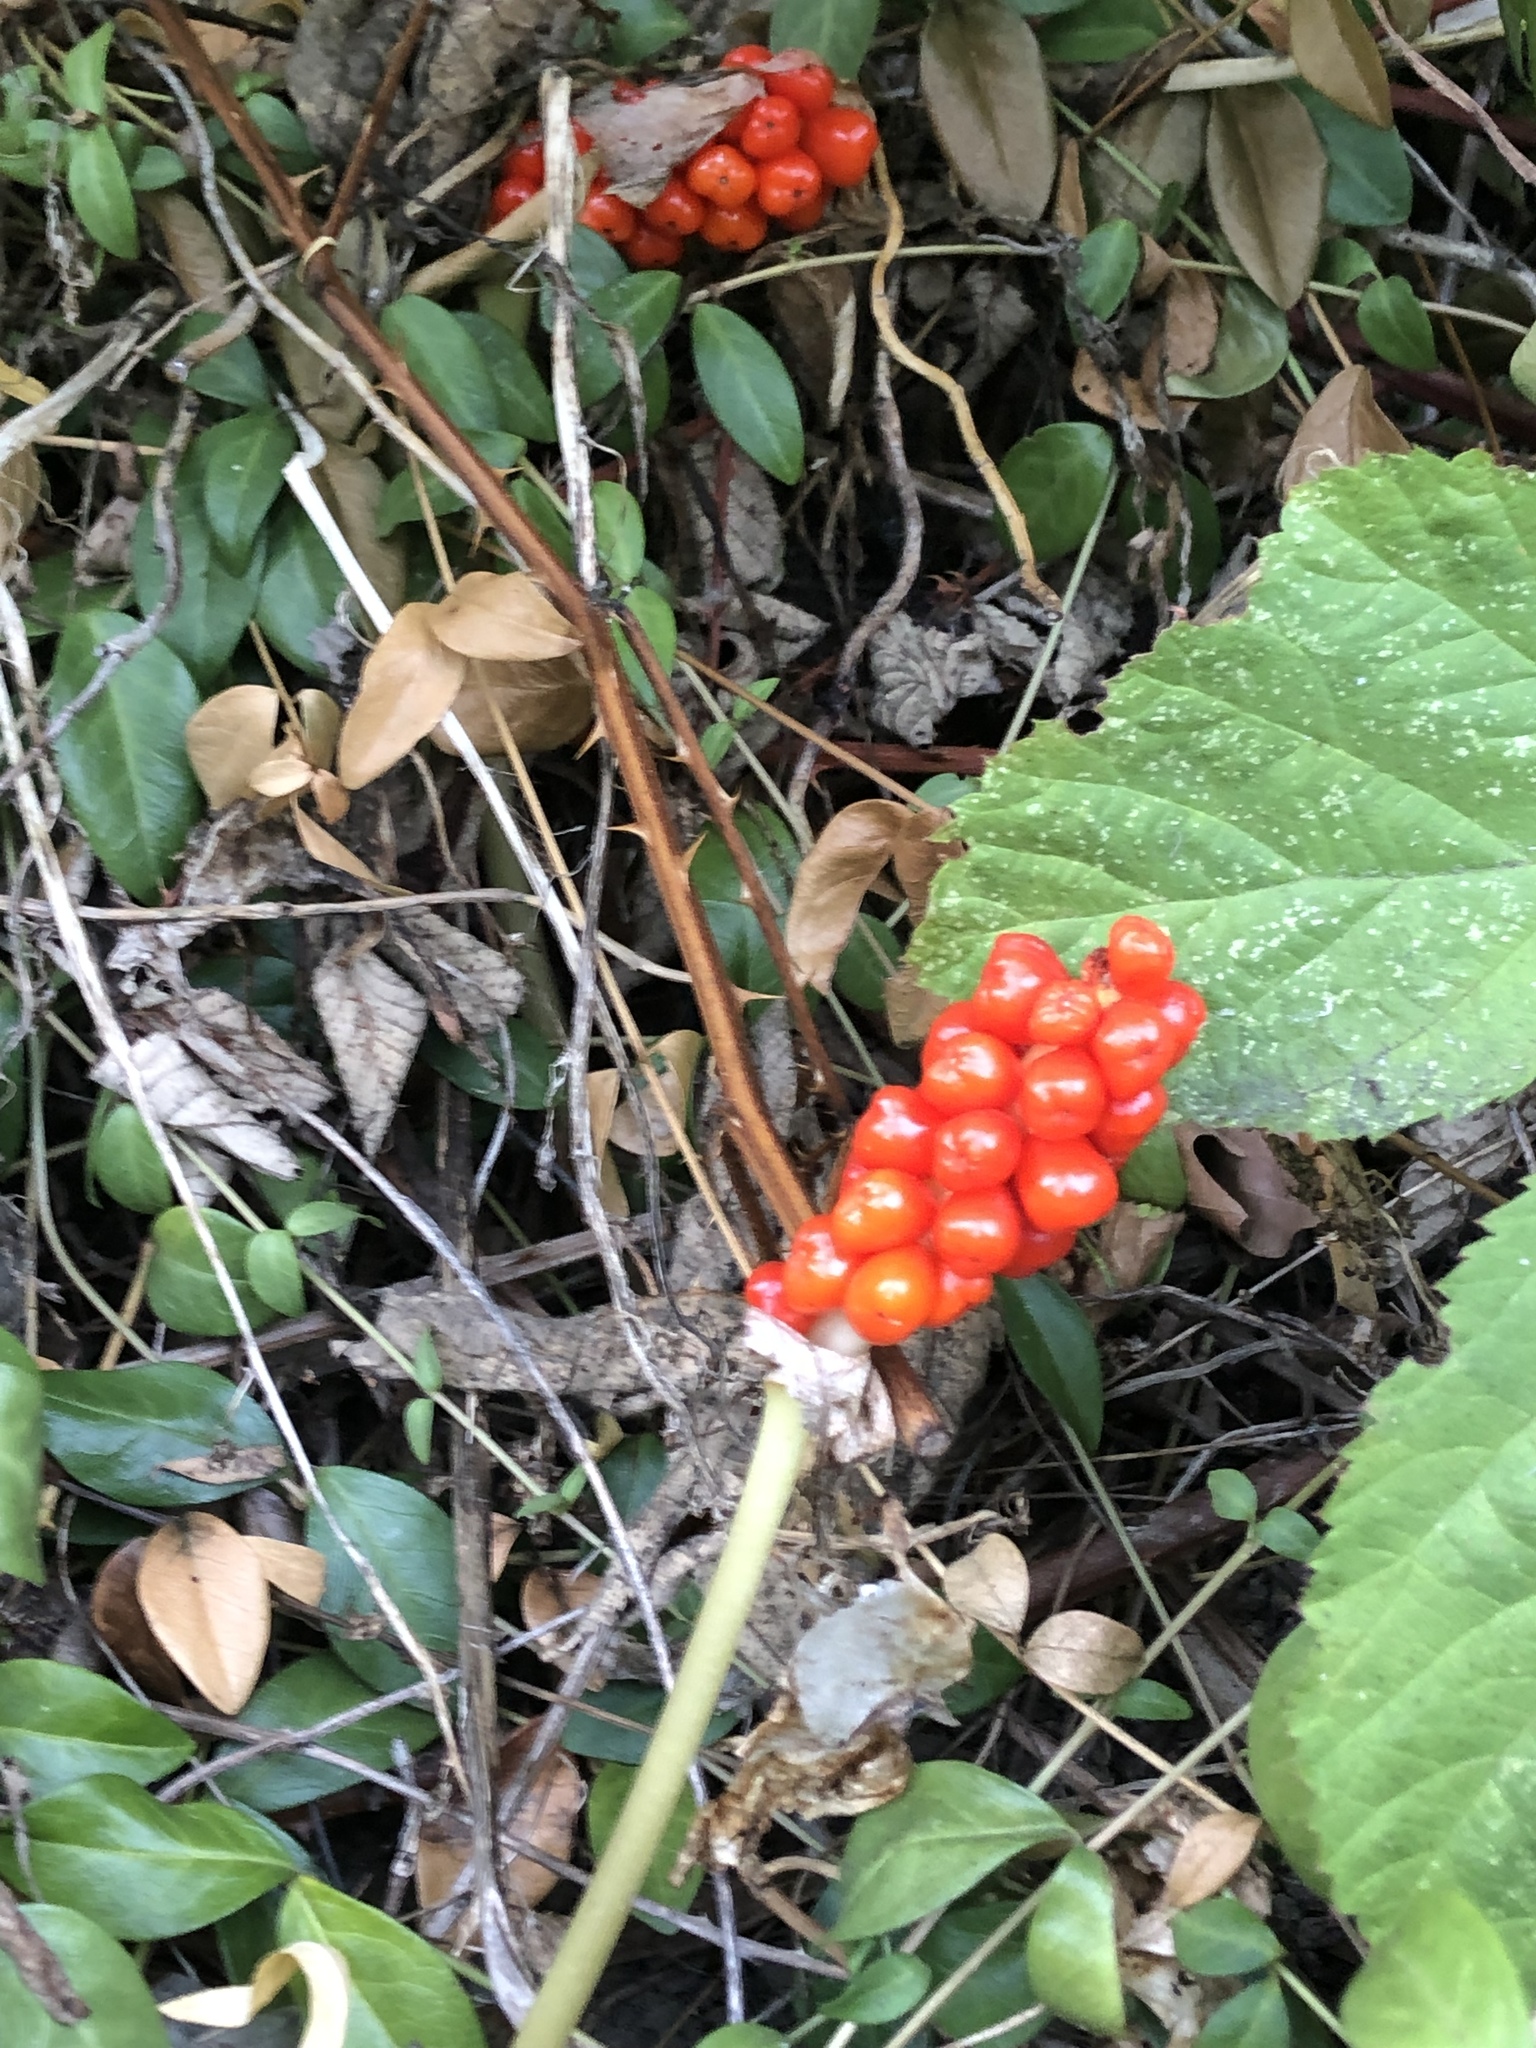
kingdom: Plantae
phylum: Tracheophyta
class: Liliopsida
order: Alismatales
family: Araceae
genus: Arum
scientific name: Arum italicum
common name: Italian lords-and-ladies
